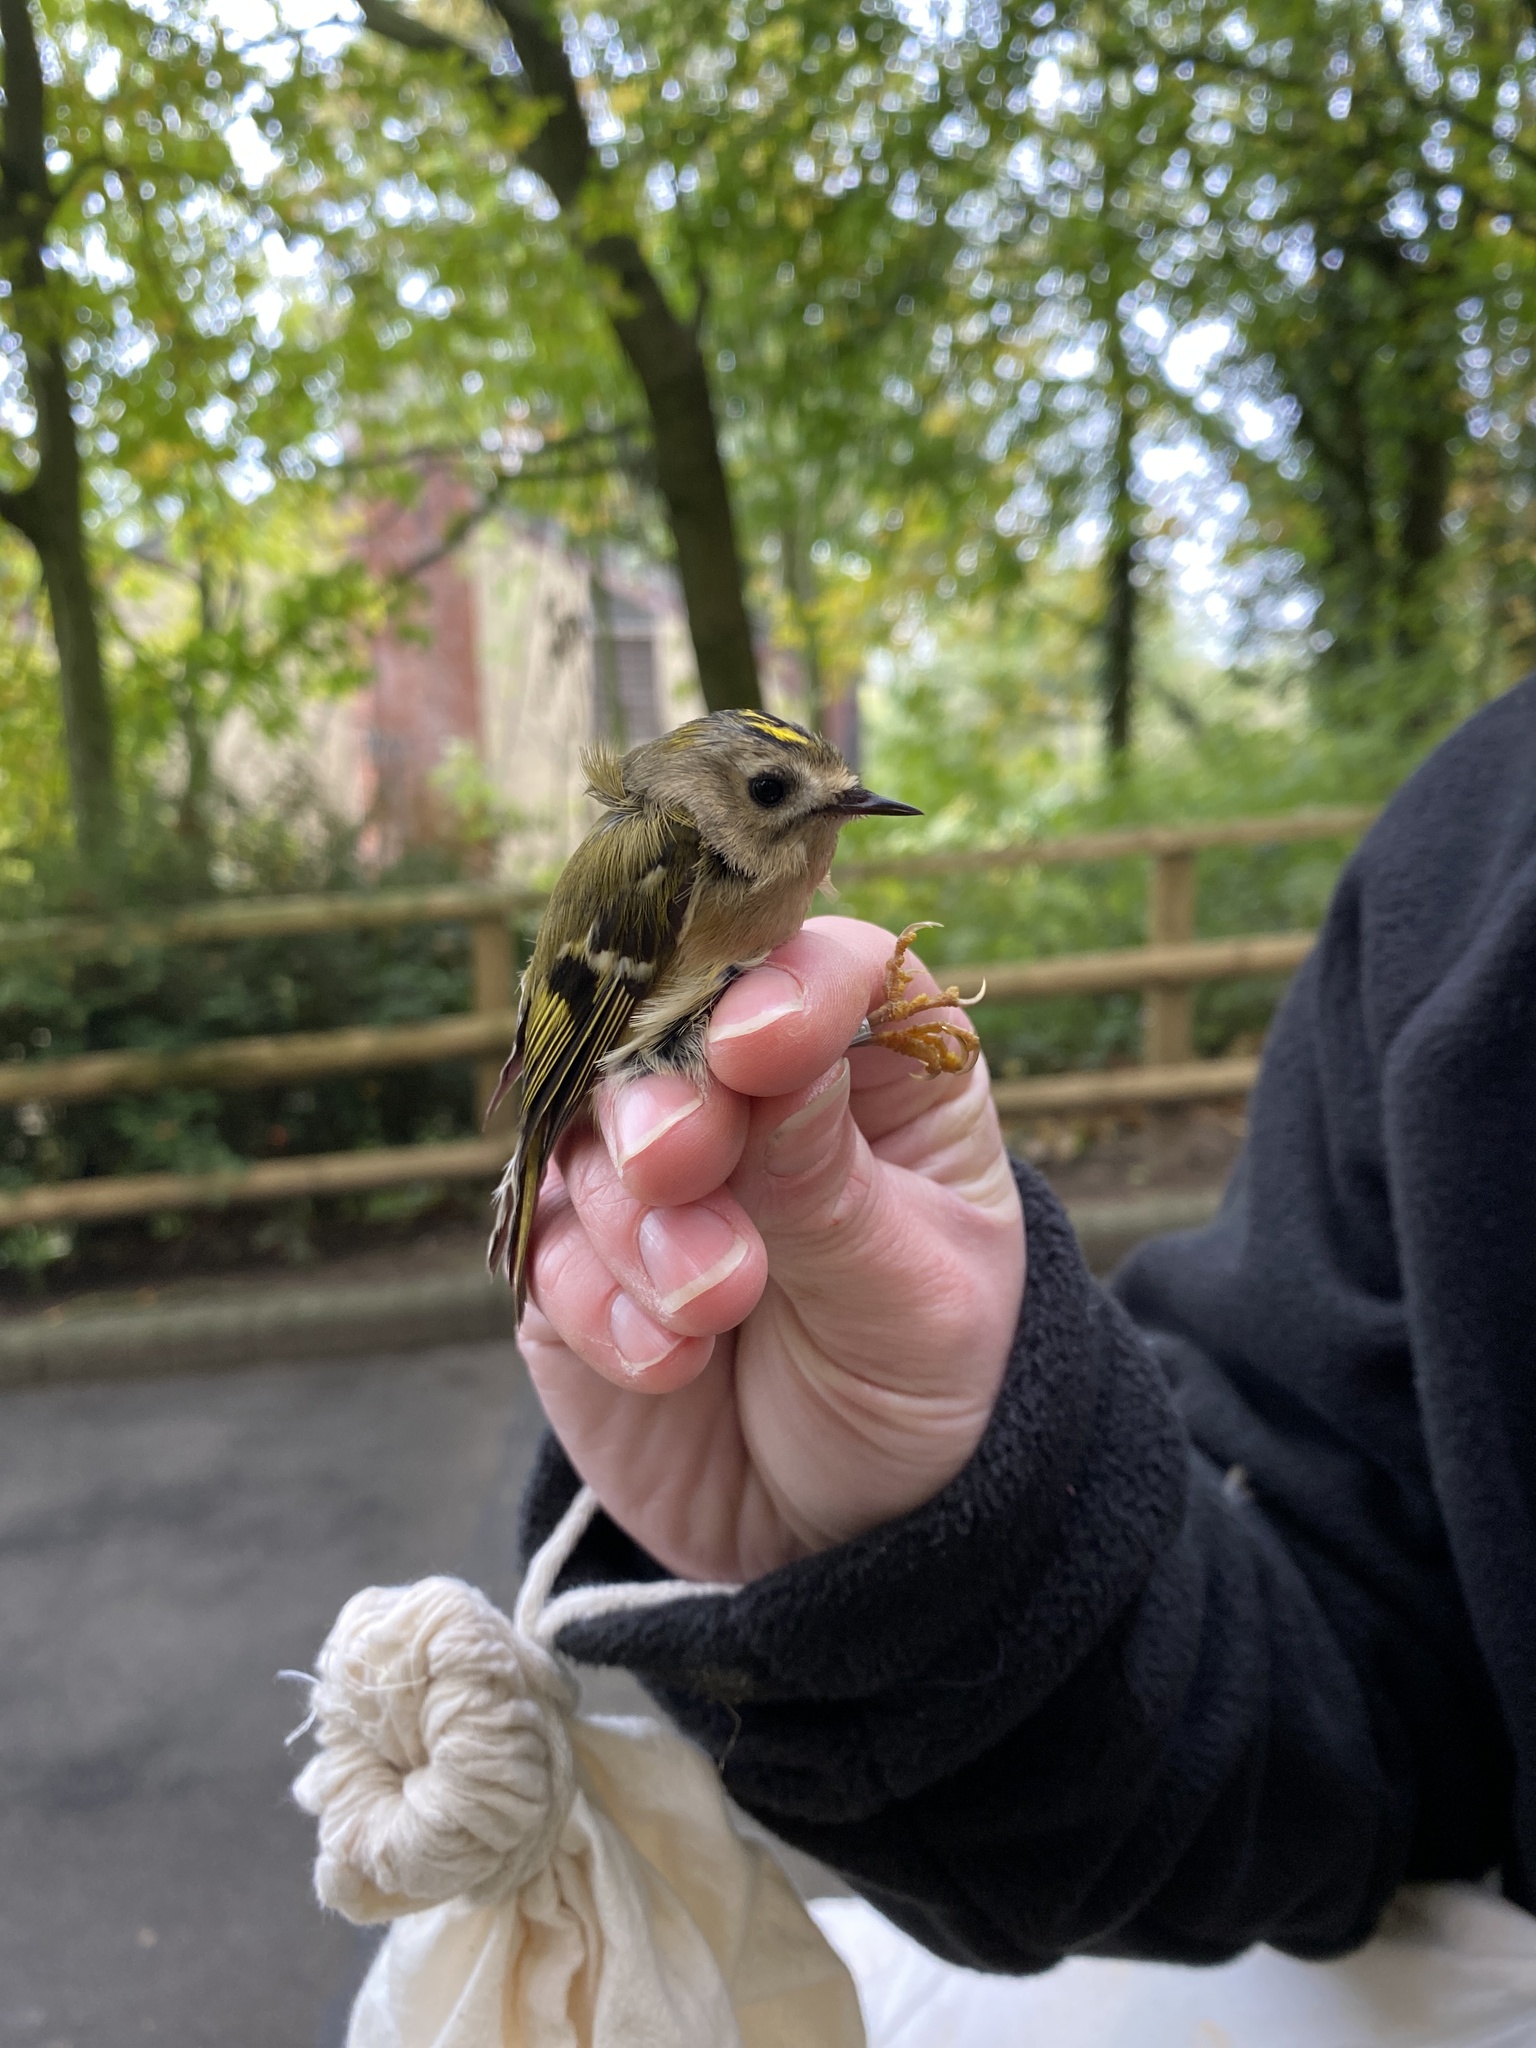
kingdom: Animalia
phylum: Chordata
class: Aves
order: Passeriformes
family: Regulidae
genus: Regulus
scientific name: Regulus regulus
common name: Goldcrest
